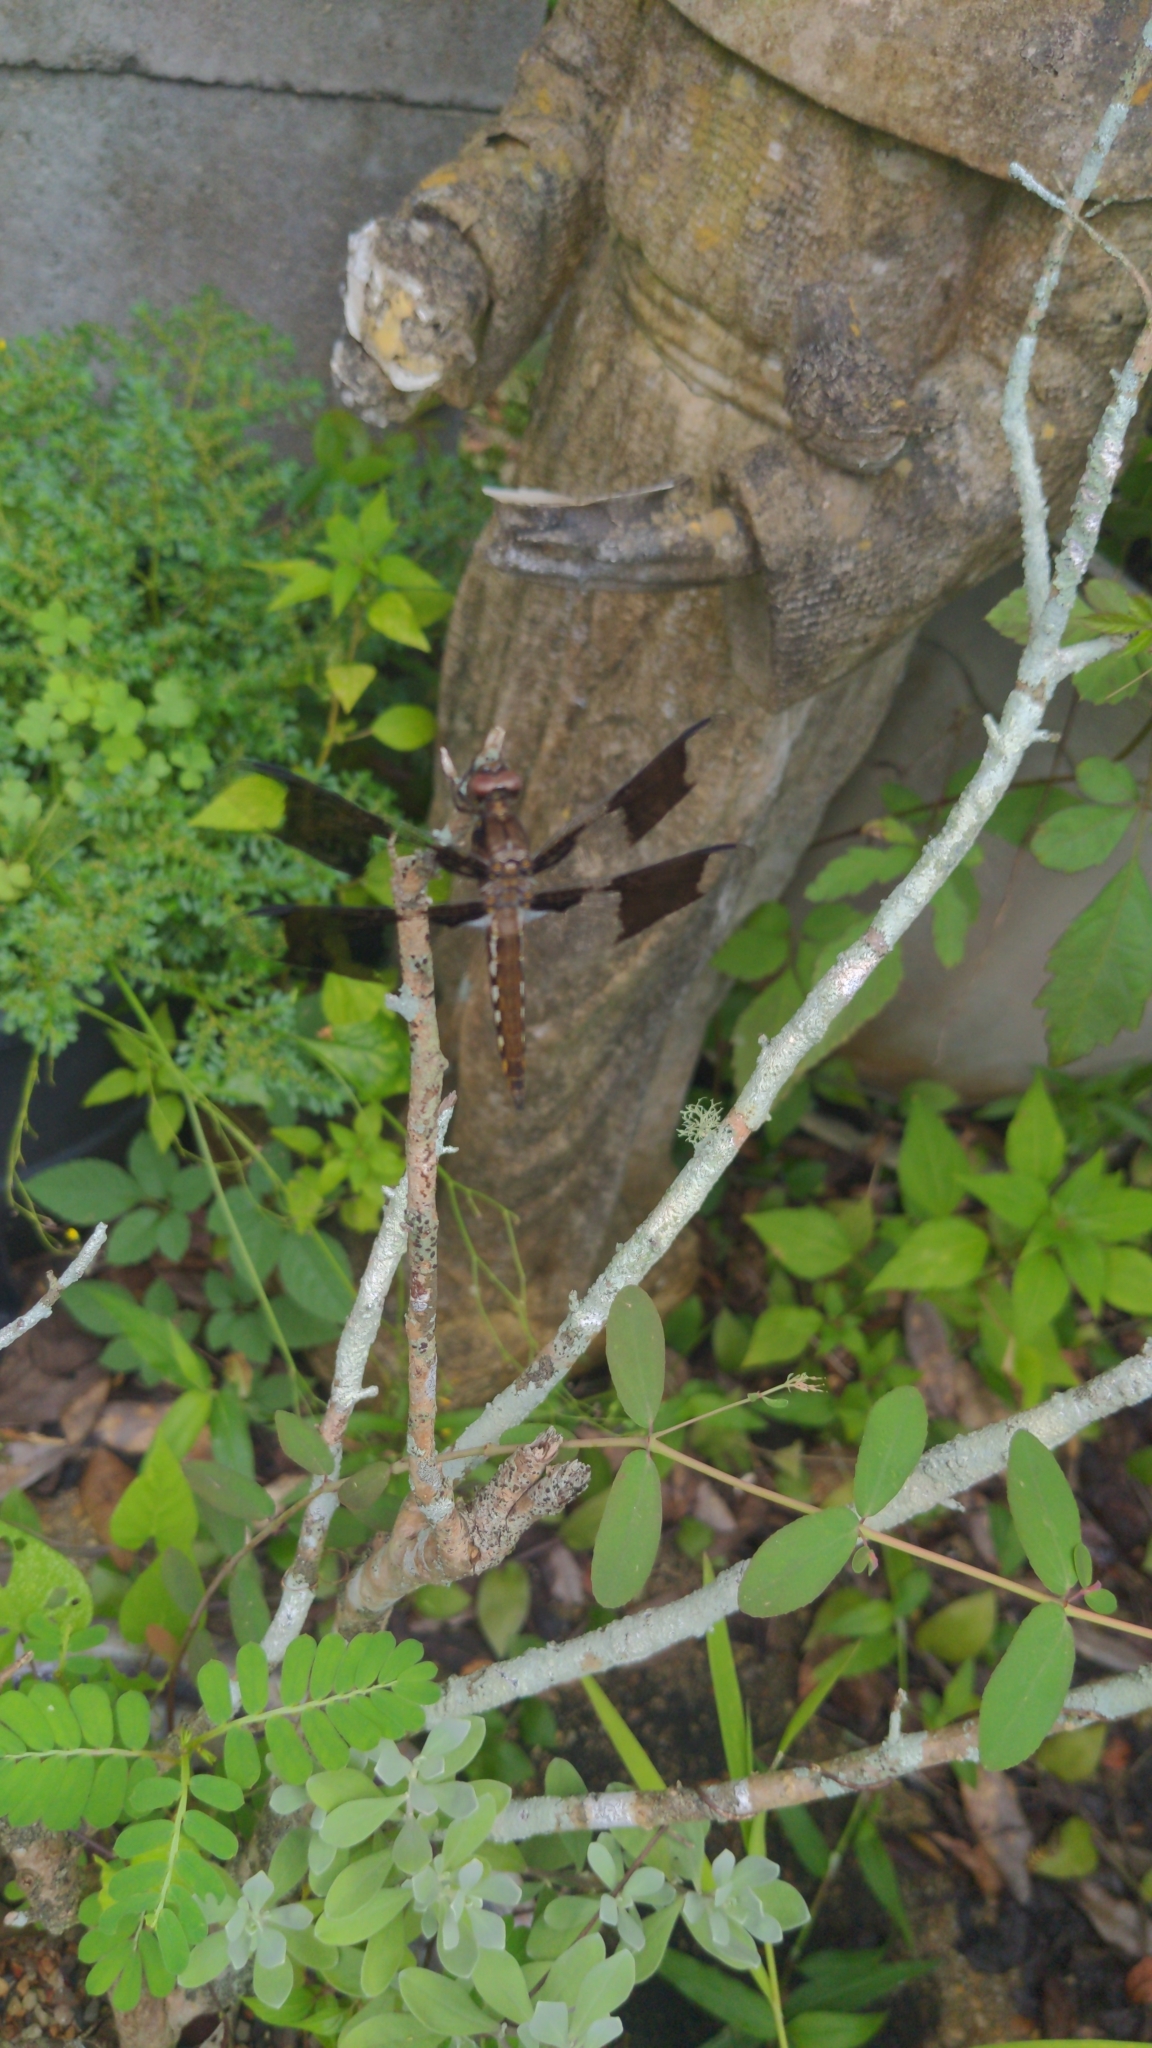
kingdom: Animalia
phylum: Arthropoda
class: Insecta
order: Odonata
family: Libellulidae
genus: Plathemis
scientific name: Plathemis lydia
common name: Common whitetail
